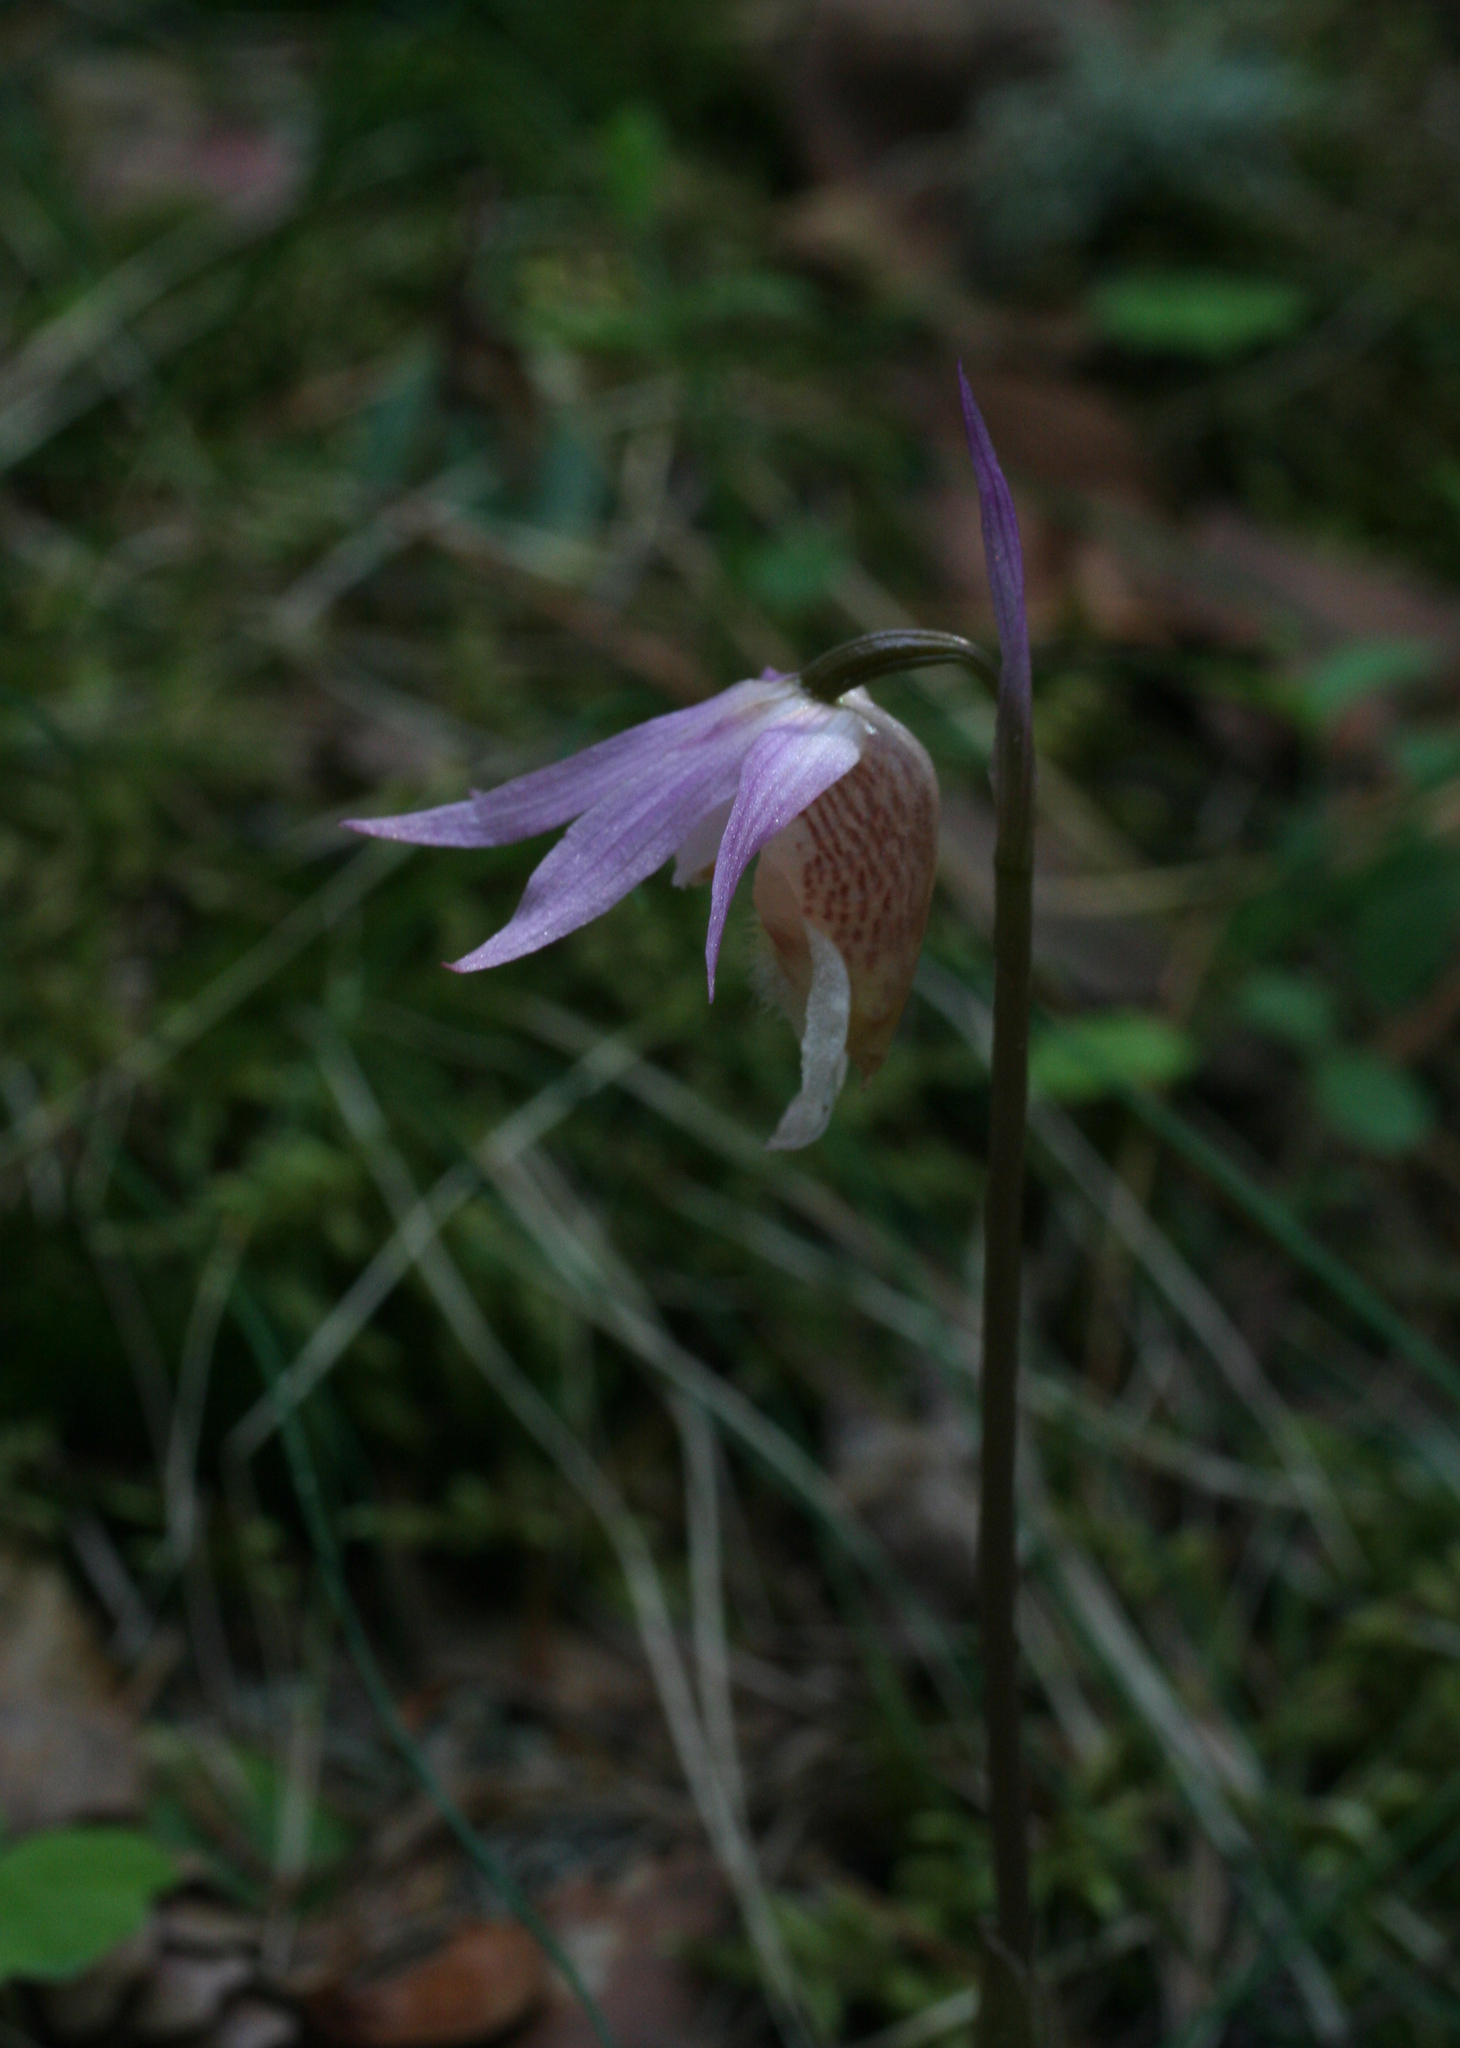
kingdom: Plantae
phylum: Tracheophyta
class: Liliopsida
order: Asparagales
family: Orchidaceae
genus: Calypso
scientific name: Calypso bulbosa
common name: Calypso
